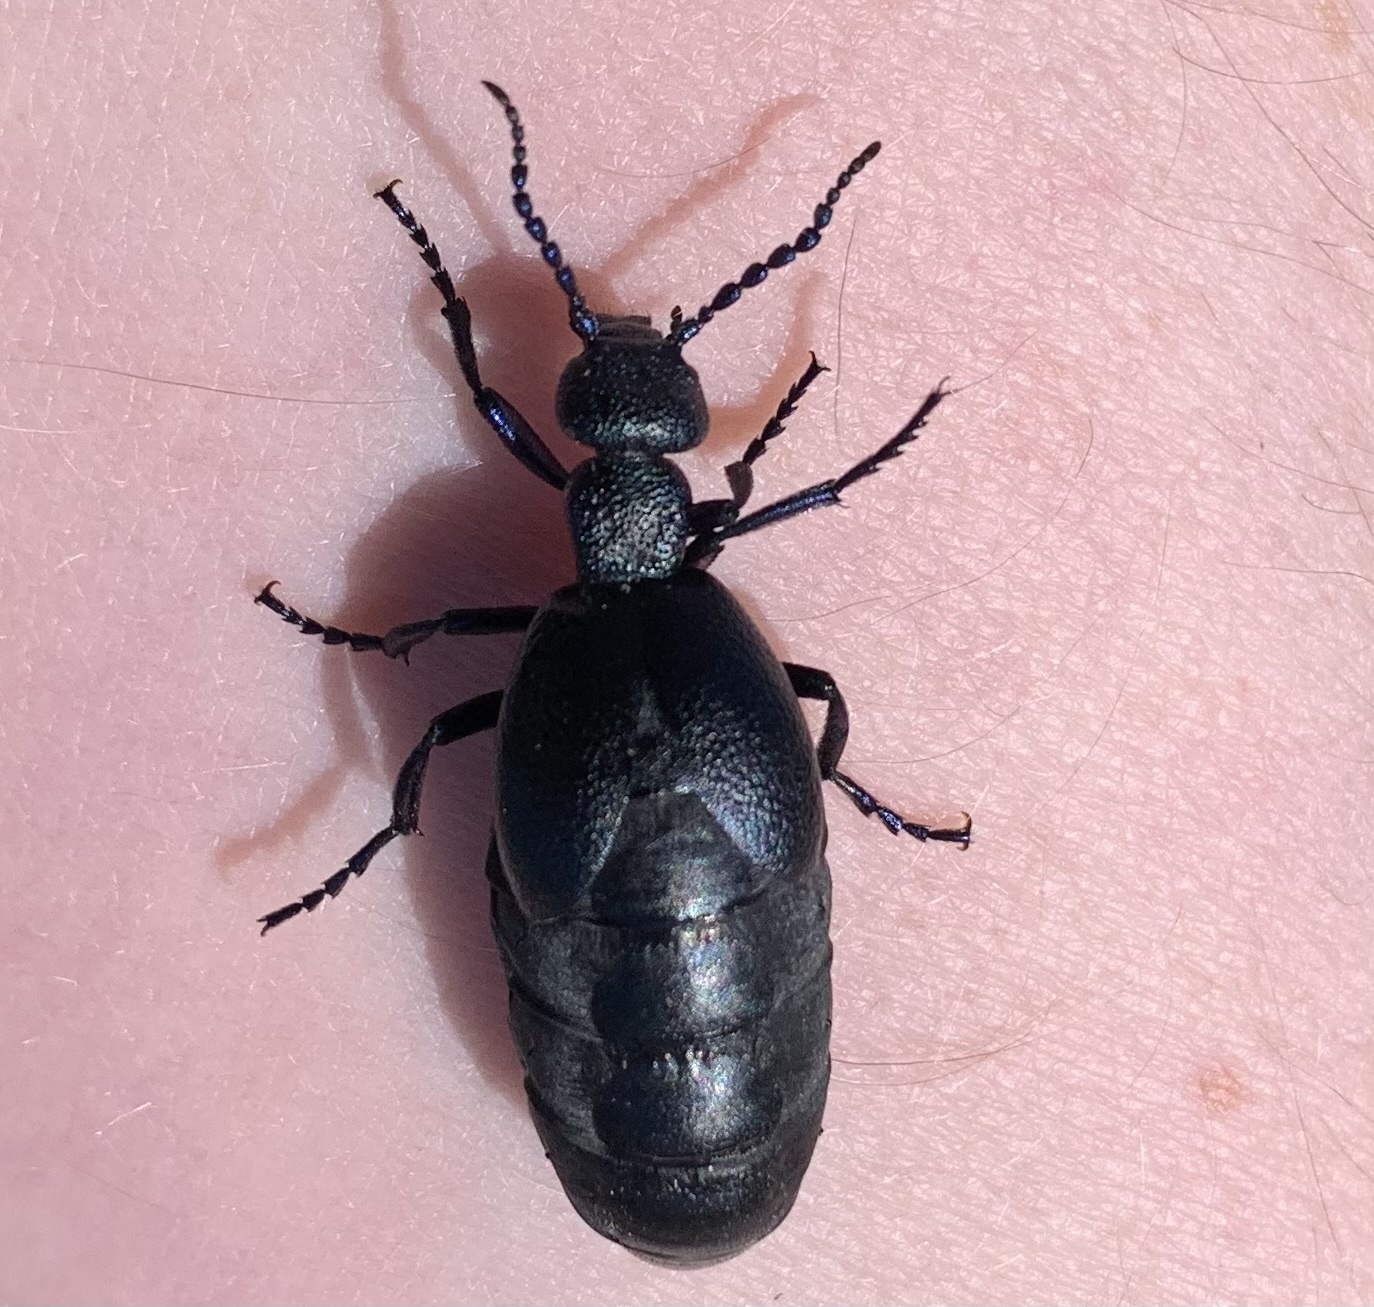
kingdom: Animalia
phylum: Arthropoda
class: Insecta
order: Coleoptera
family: Meloidae
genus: Meloe
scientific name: Meloe proscarabaeus
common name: Black oil-beetle
